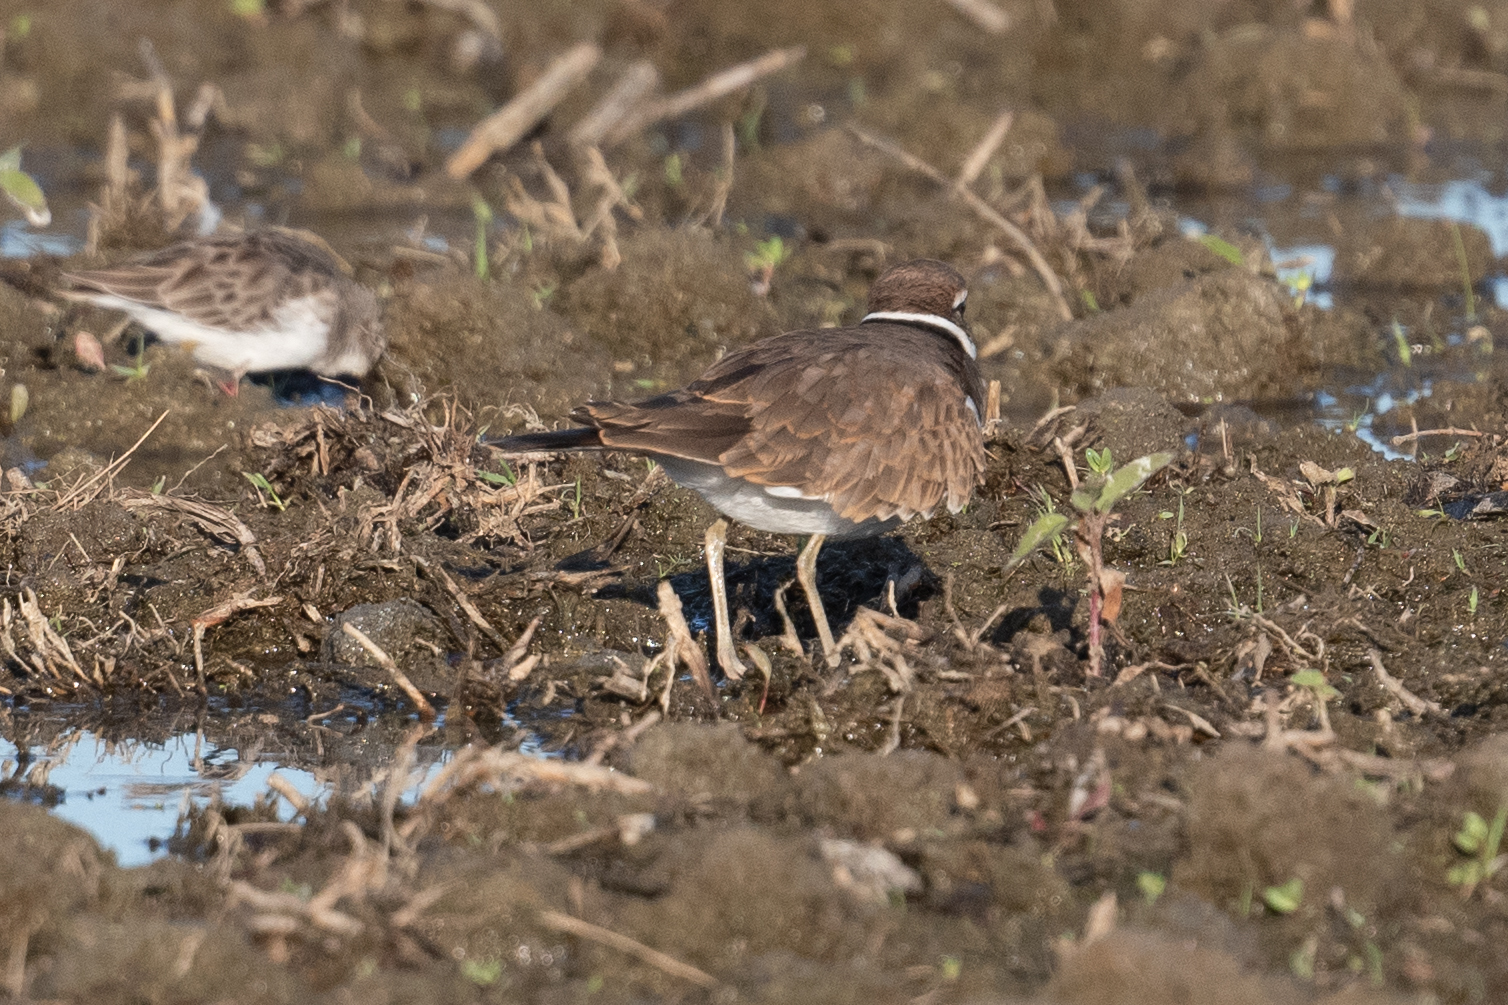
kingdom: Animalia
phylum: Chordata
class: Aves
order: Charadriiformes
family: Charadriidae
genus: Charadrius
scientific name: Charadrius vociferus
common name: Killdeer
